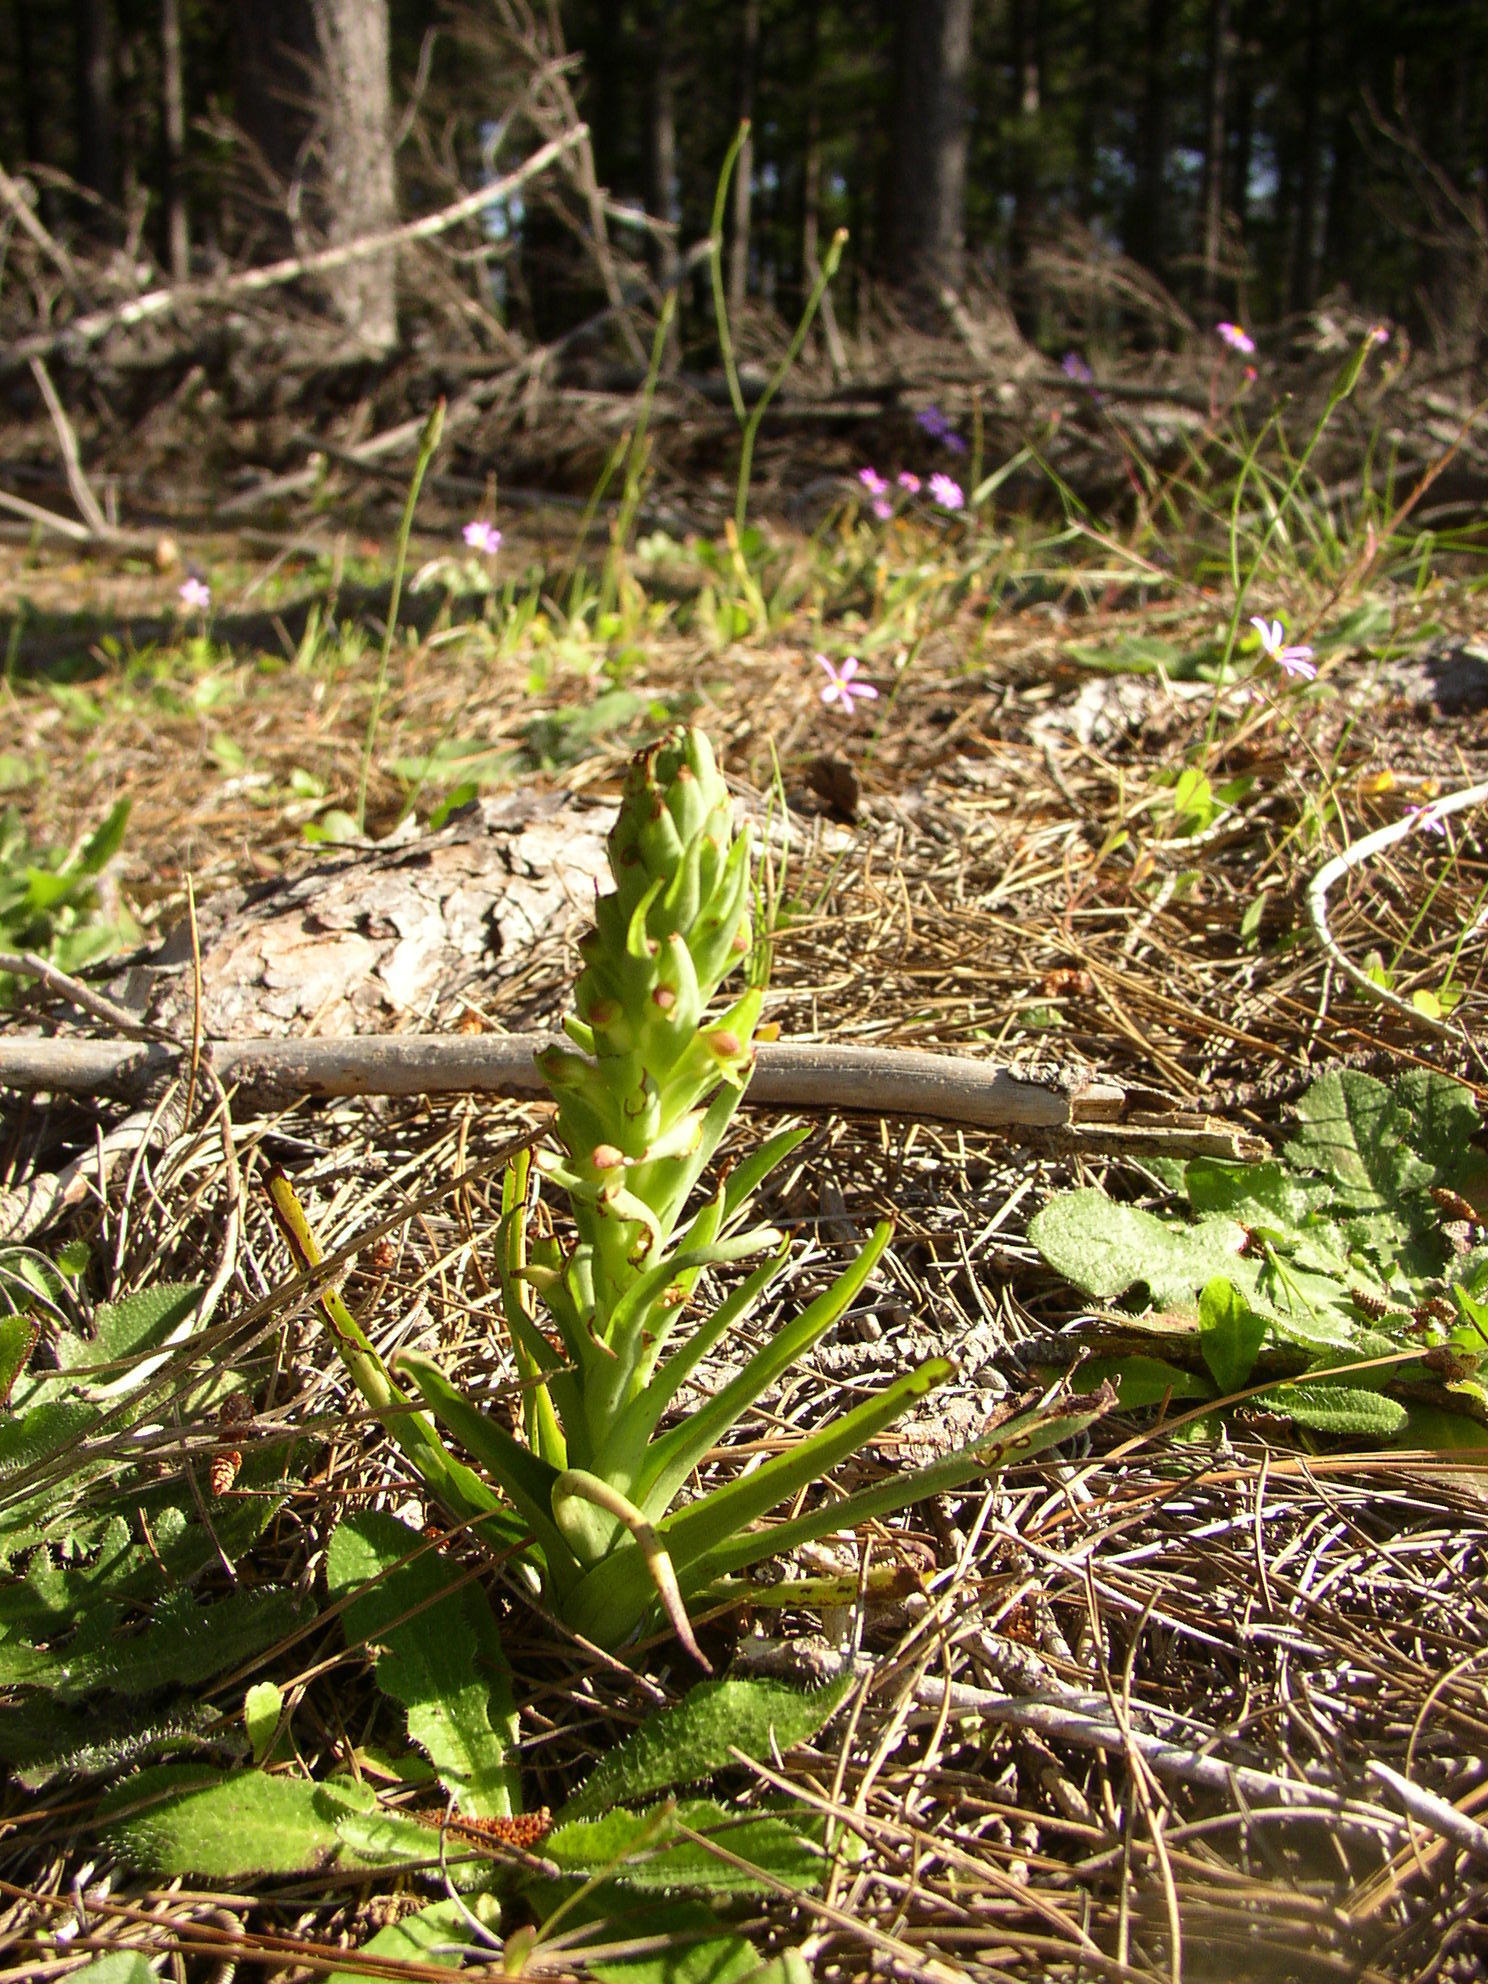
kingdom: Plantae
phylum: Tracheophyta
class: Liliopsida
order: Asparagales
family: Orchidaceae
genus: Disa
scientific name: Disa bracteata
